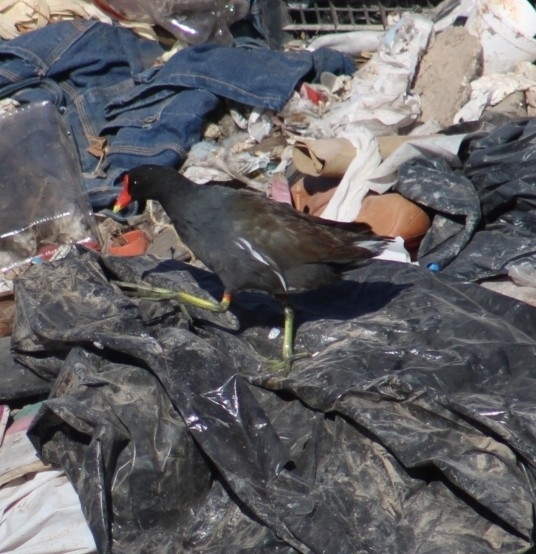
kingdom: Animalia
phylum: Chordata
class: Aves
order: Gruiformes
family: Rallidae
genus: Gallinula
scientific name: Gallinula chloropus
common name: Common moorhen
